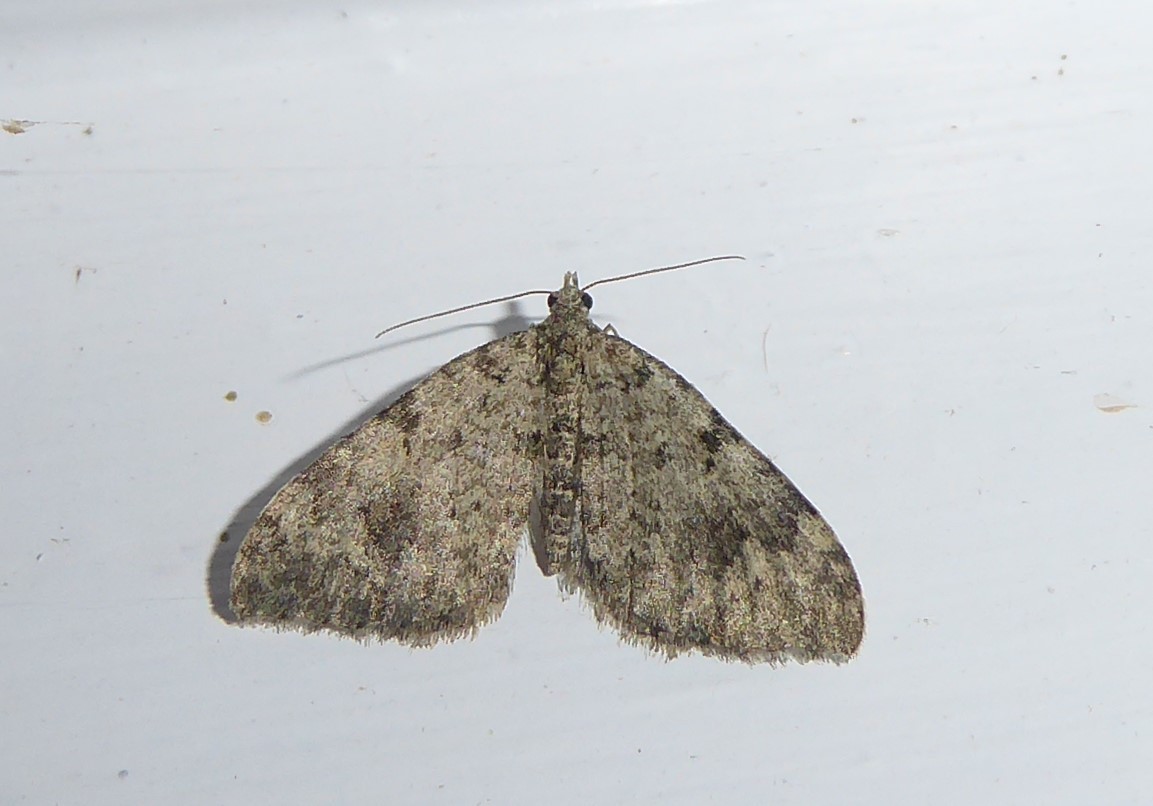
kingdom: Animalia
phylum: Arthropoda
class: Insecta
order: Lepidoptera
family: Geometridae
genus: Helastia
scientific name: Helastia cinerearia
